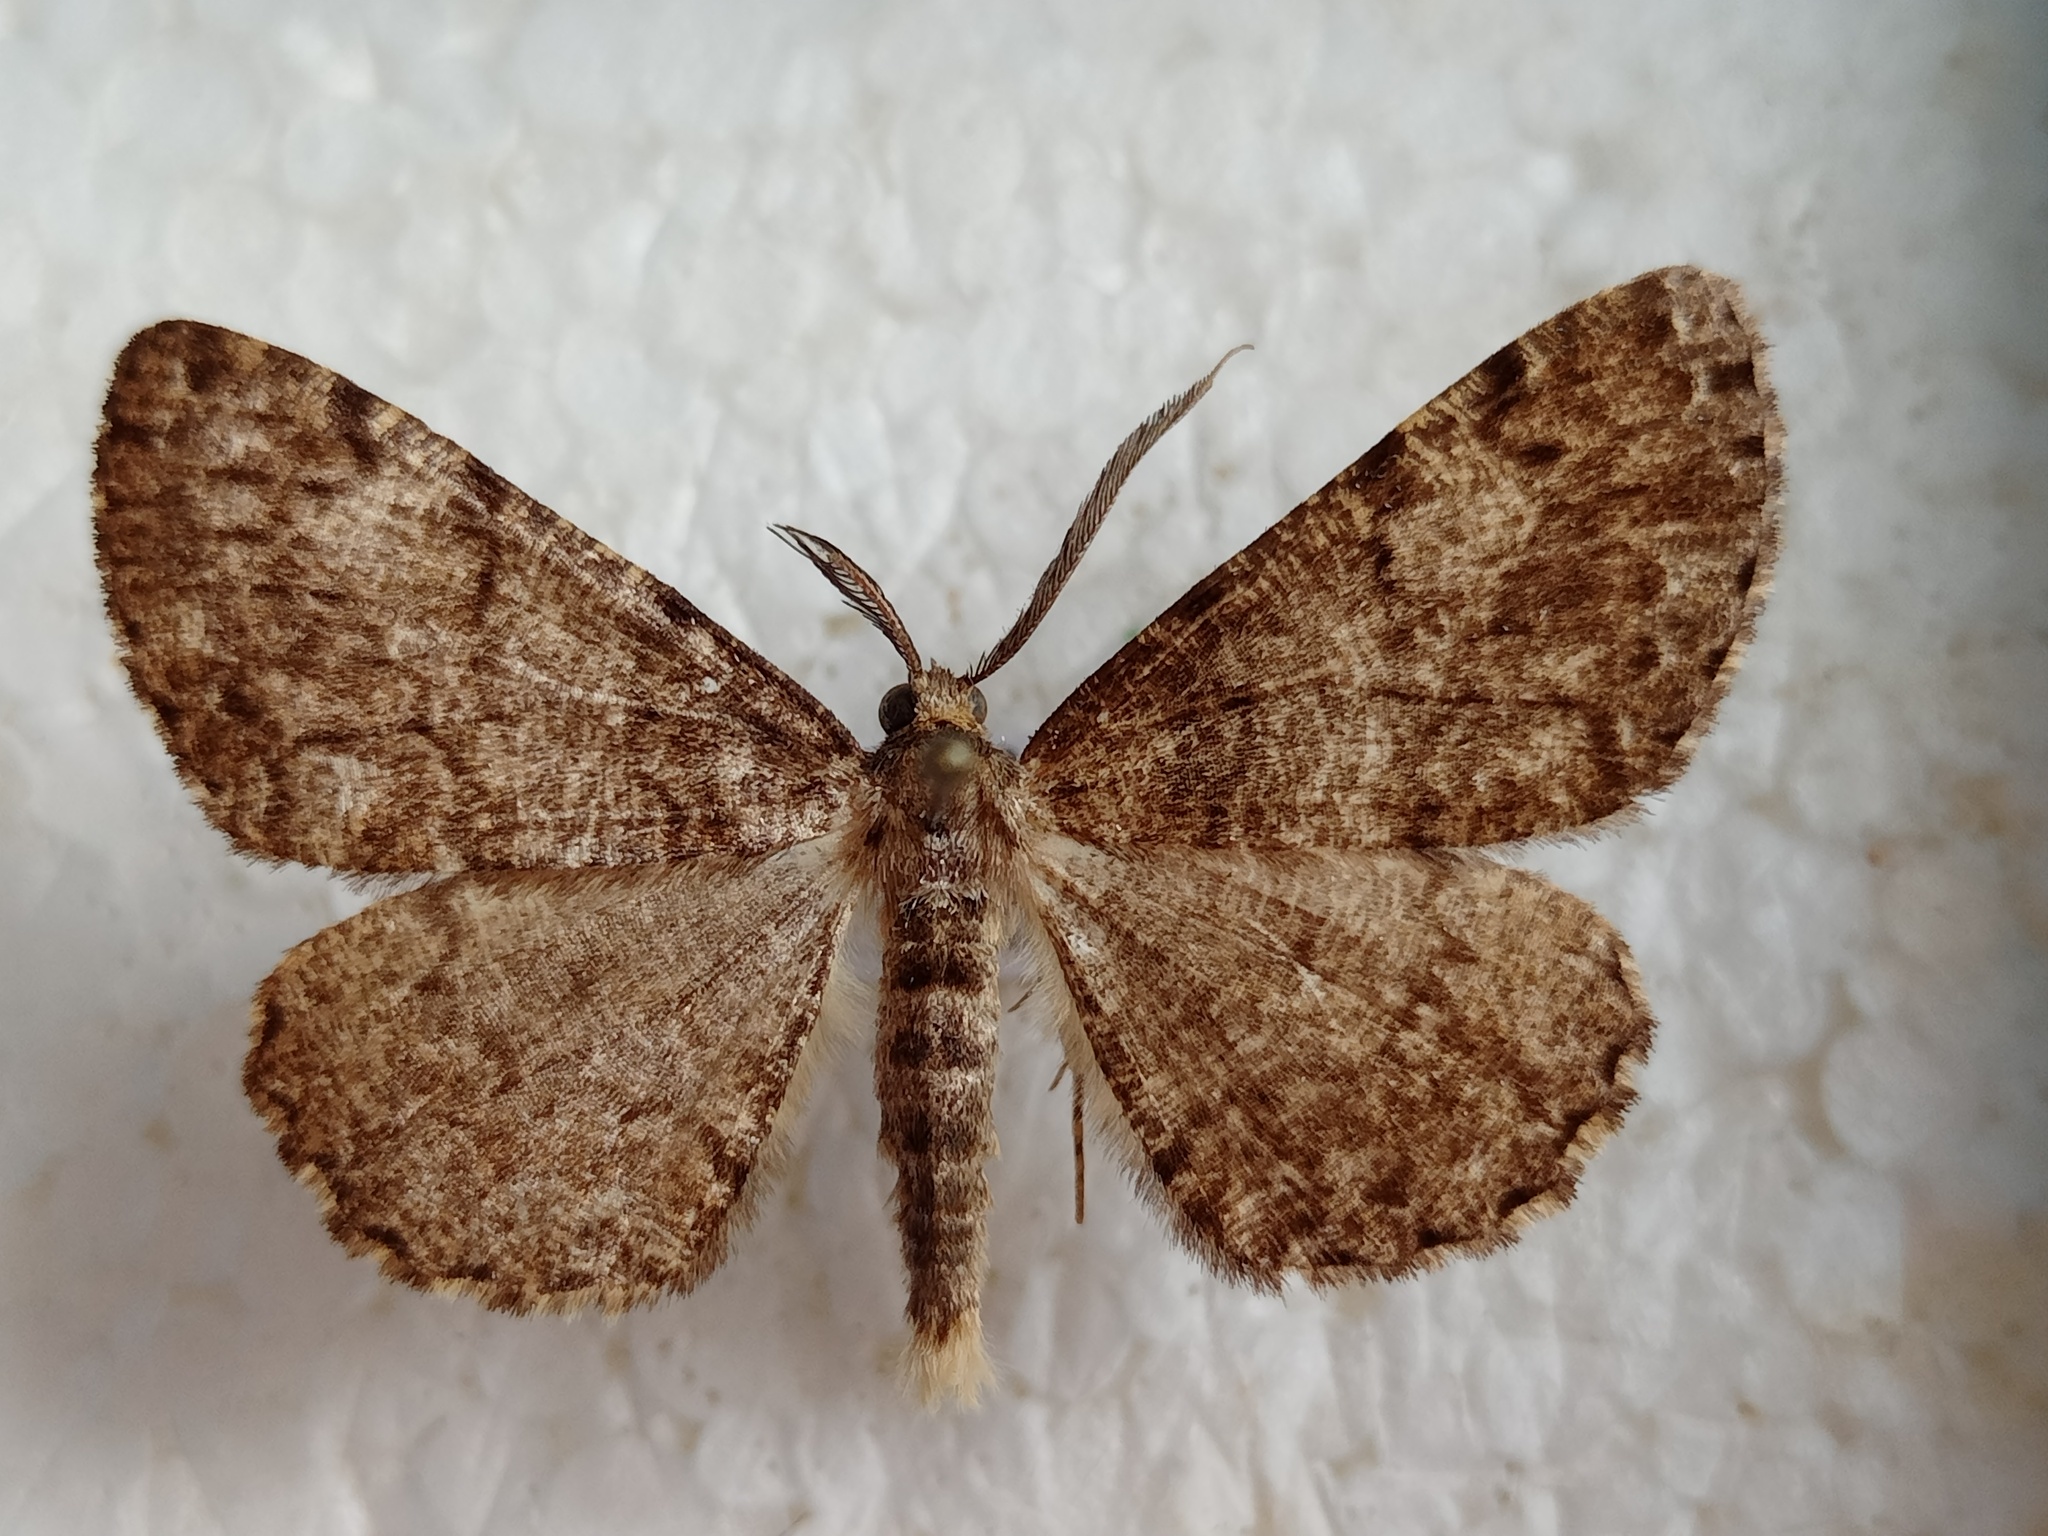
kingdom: Animalia
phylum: Arthropoda
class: Insecta
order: Lepidoptera
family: Geometridae
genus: Deileptenia
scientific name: Deileptenia ribeata
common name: Satin beauty
